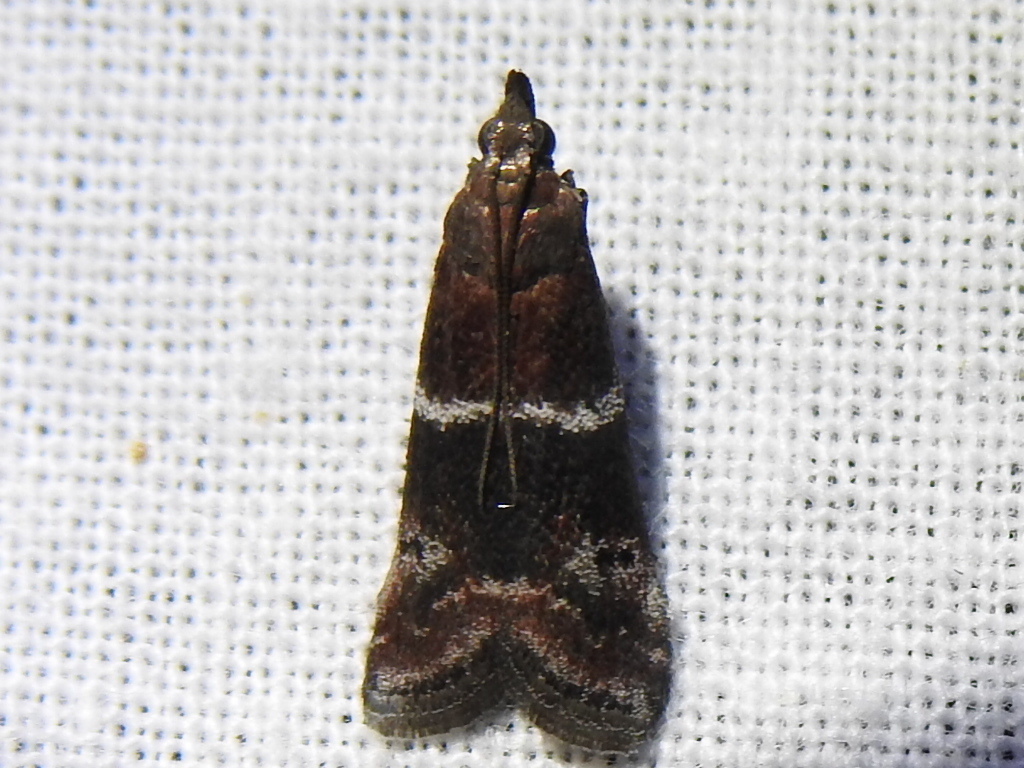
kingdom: Animalia
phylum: Arthropoda
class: Insecta
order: Lepidoptera
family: Pyralidae
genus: Moodna
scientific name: Moodna ostrinella
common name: Darker moodna moth
